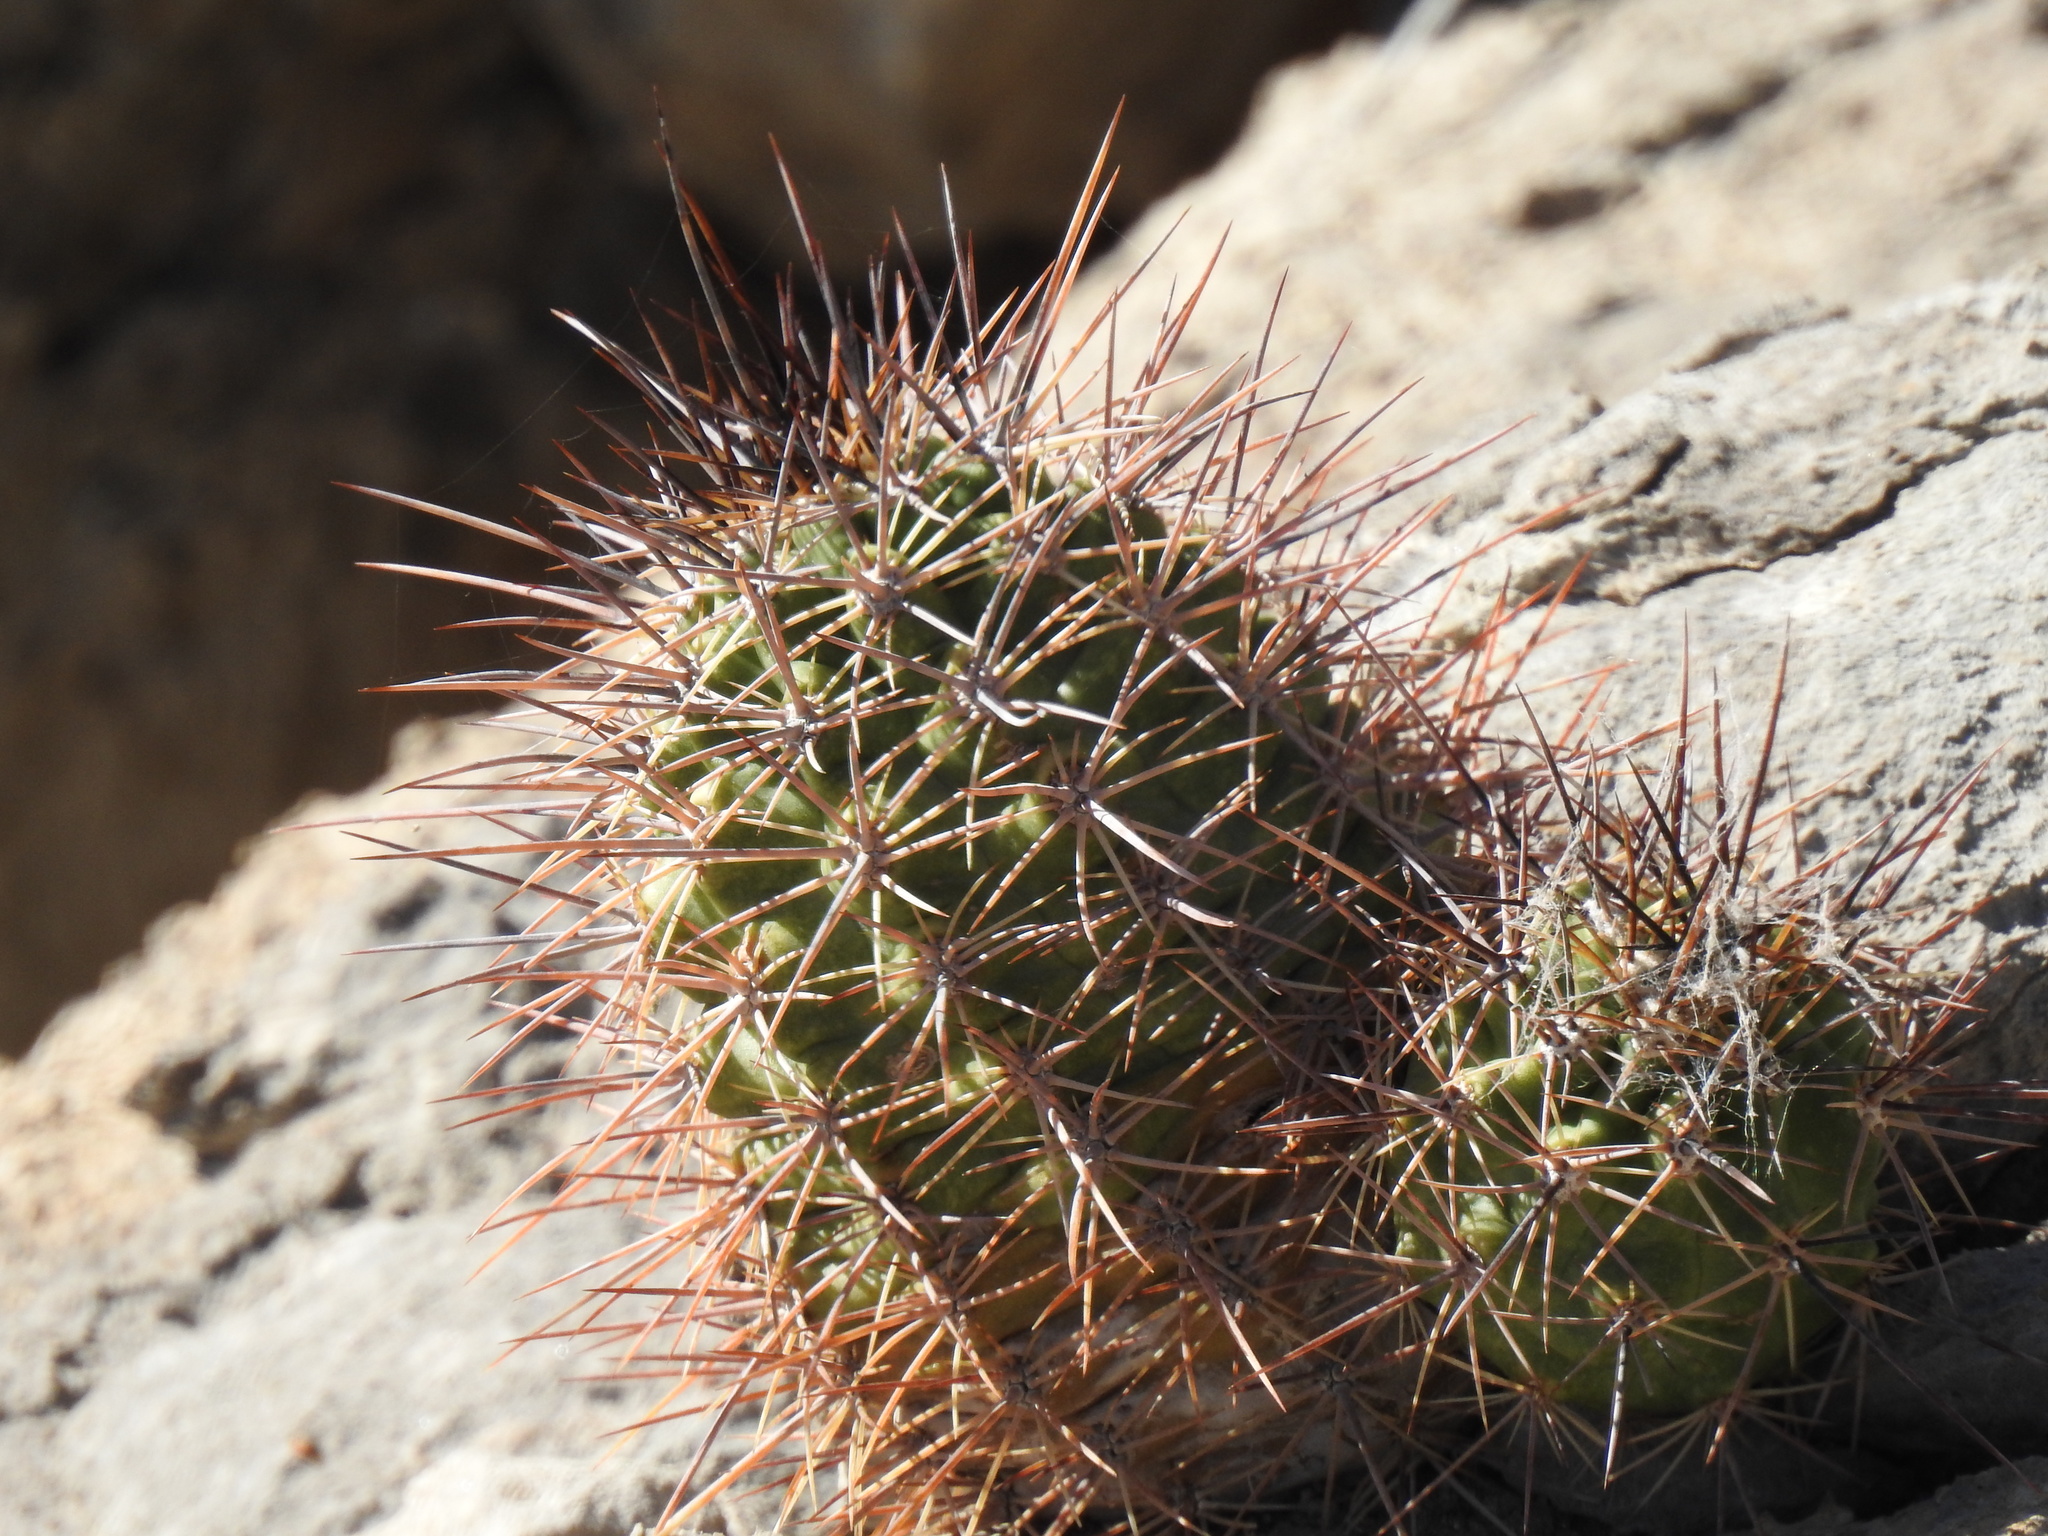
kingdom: Plantae
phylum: Tracheophyta
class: Magnoliopsida
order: Caryophyllales
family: Cactaceae
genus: Echinocereus
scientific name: Echinocereus coccineus
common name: Scarlet hedgehog cactus
